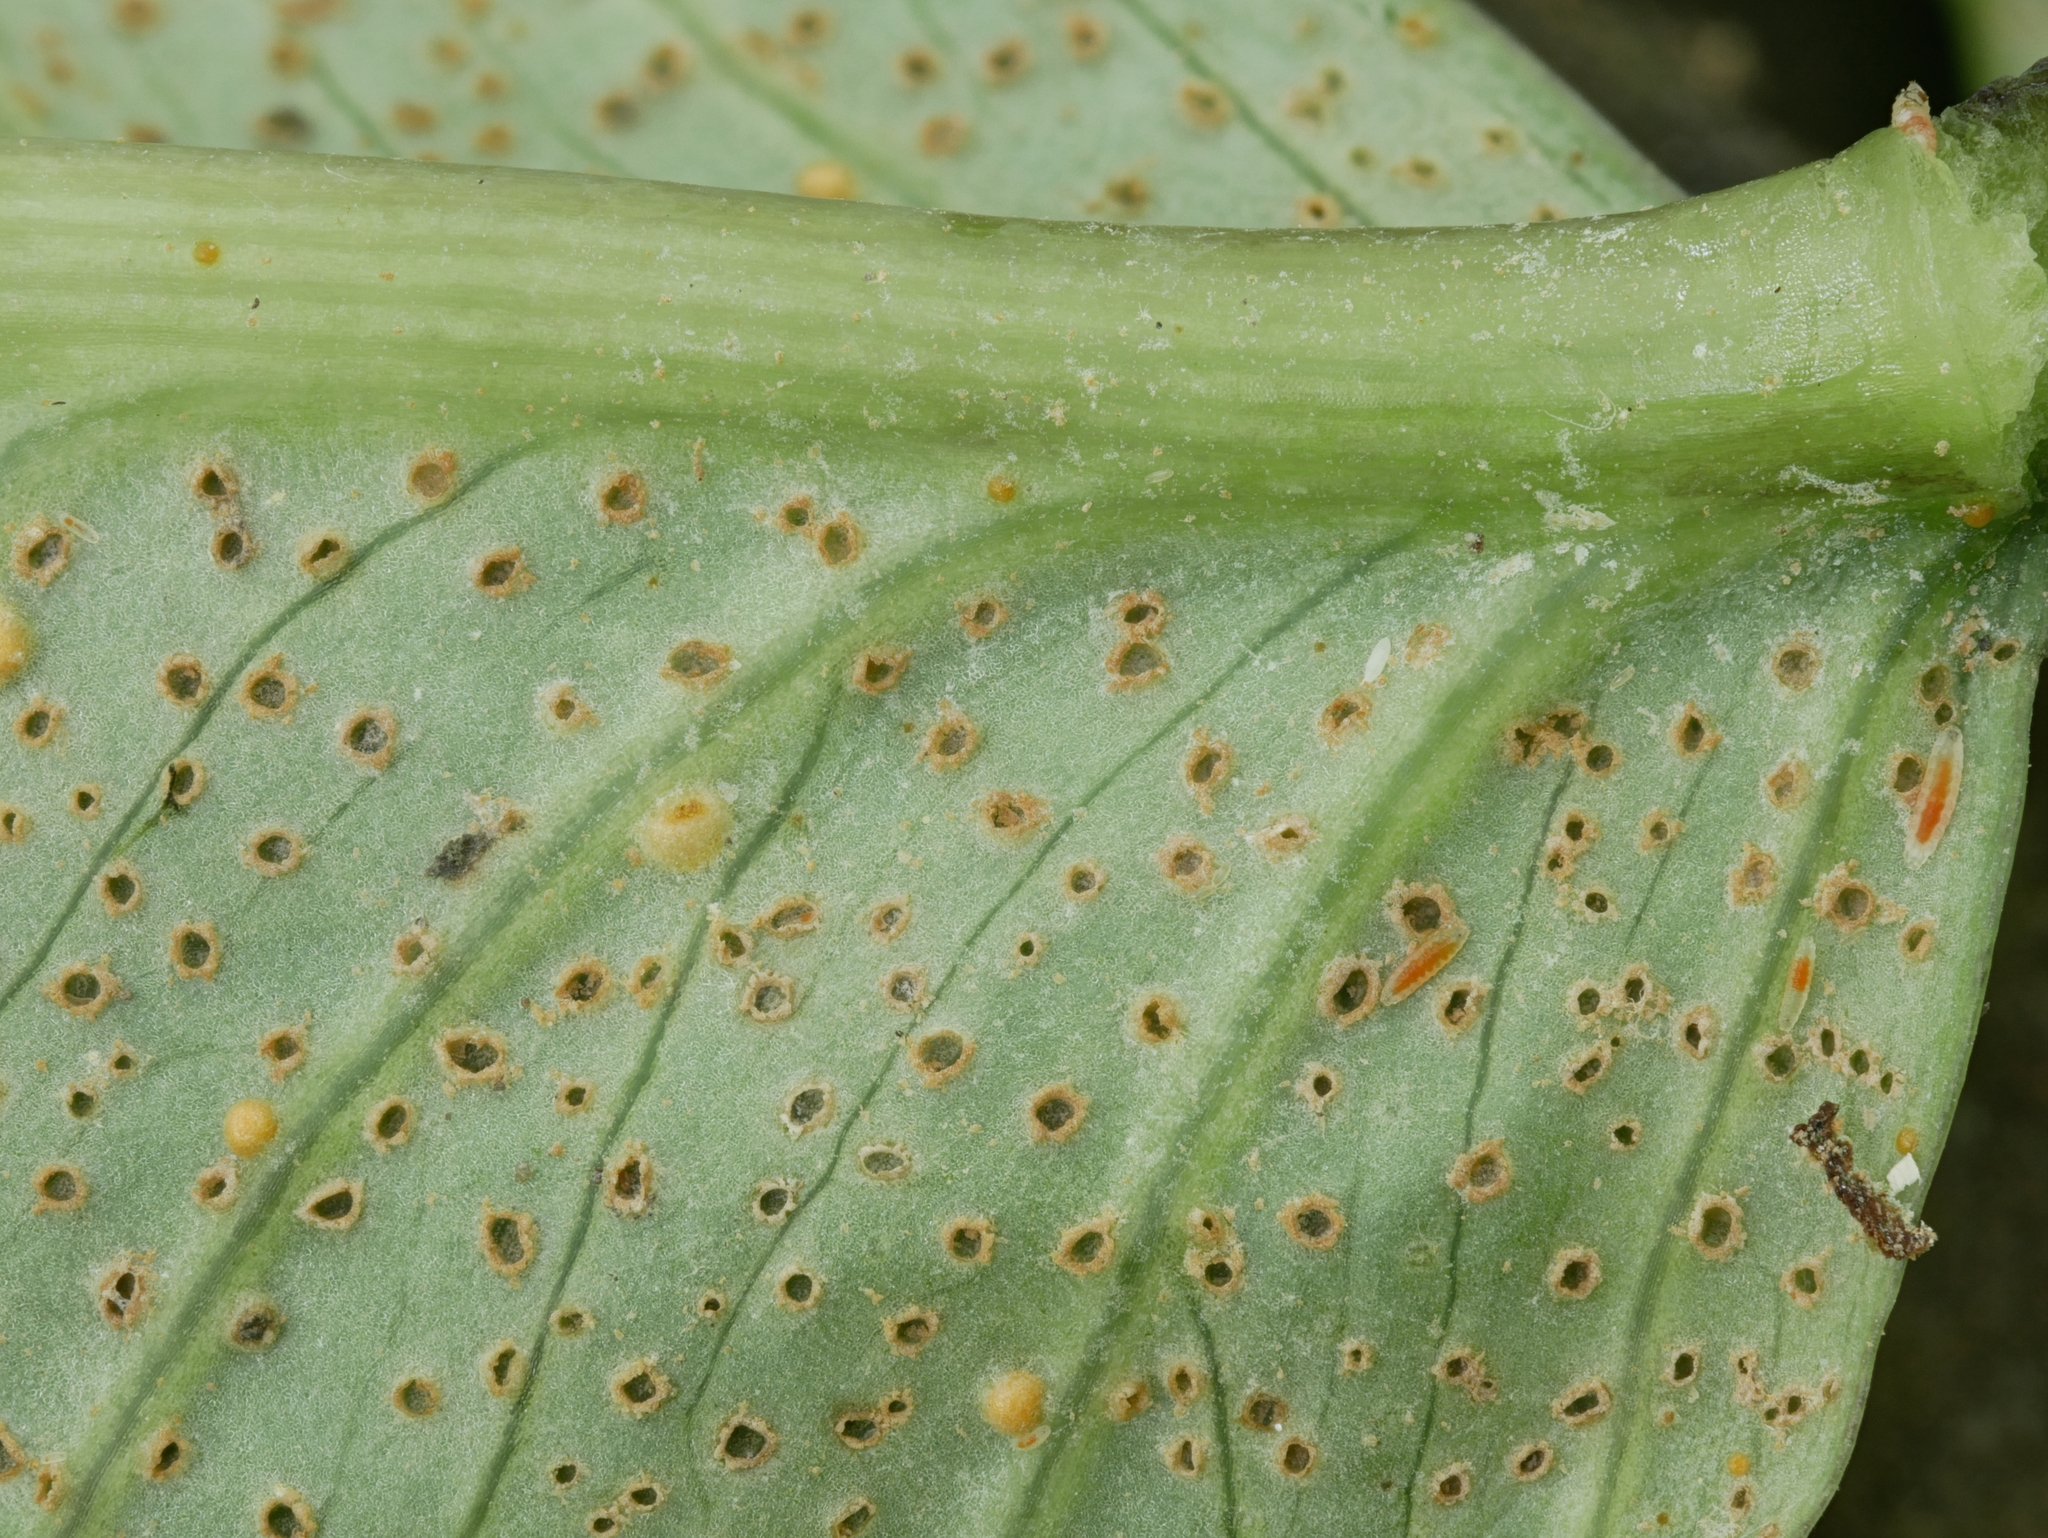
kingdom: Fungi
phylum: Basidiomycota
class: Pucciniomycetes
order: Pucciniales
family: Pucciniaceae
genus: Uromyces
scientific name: Uromyces ari-triphylli
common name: Jack-in-the-pulpit rust
